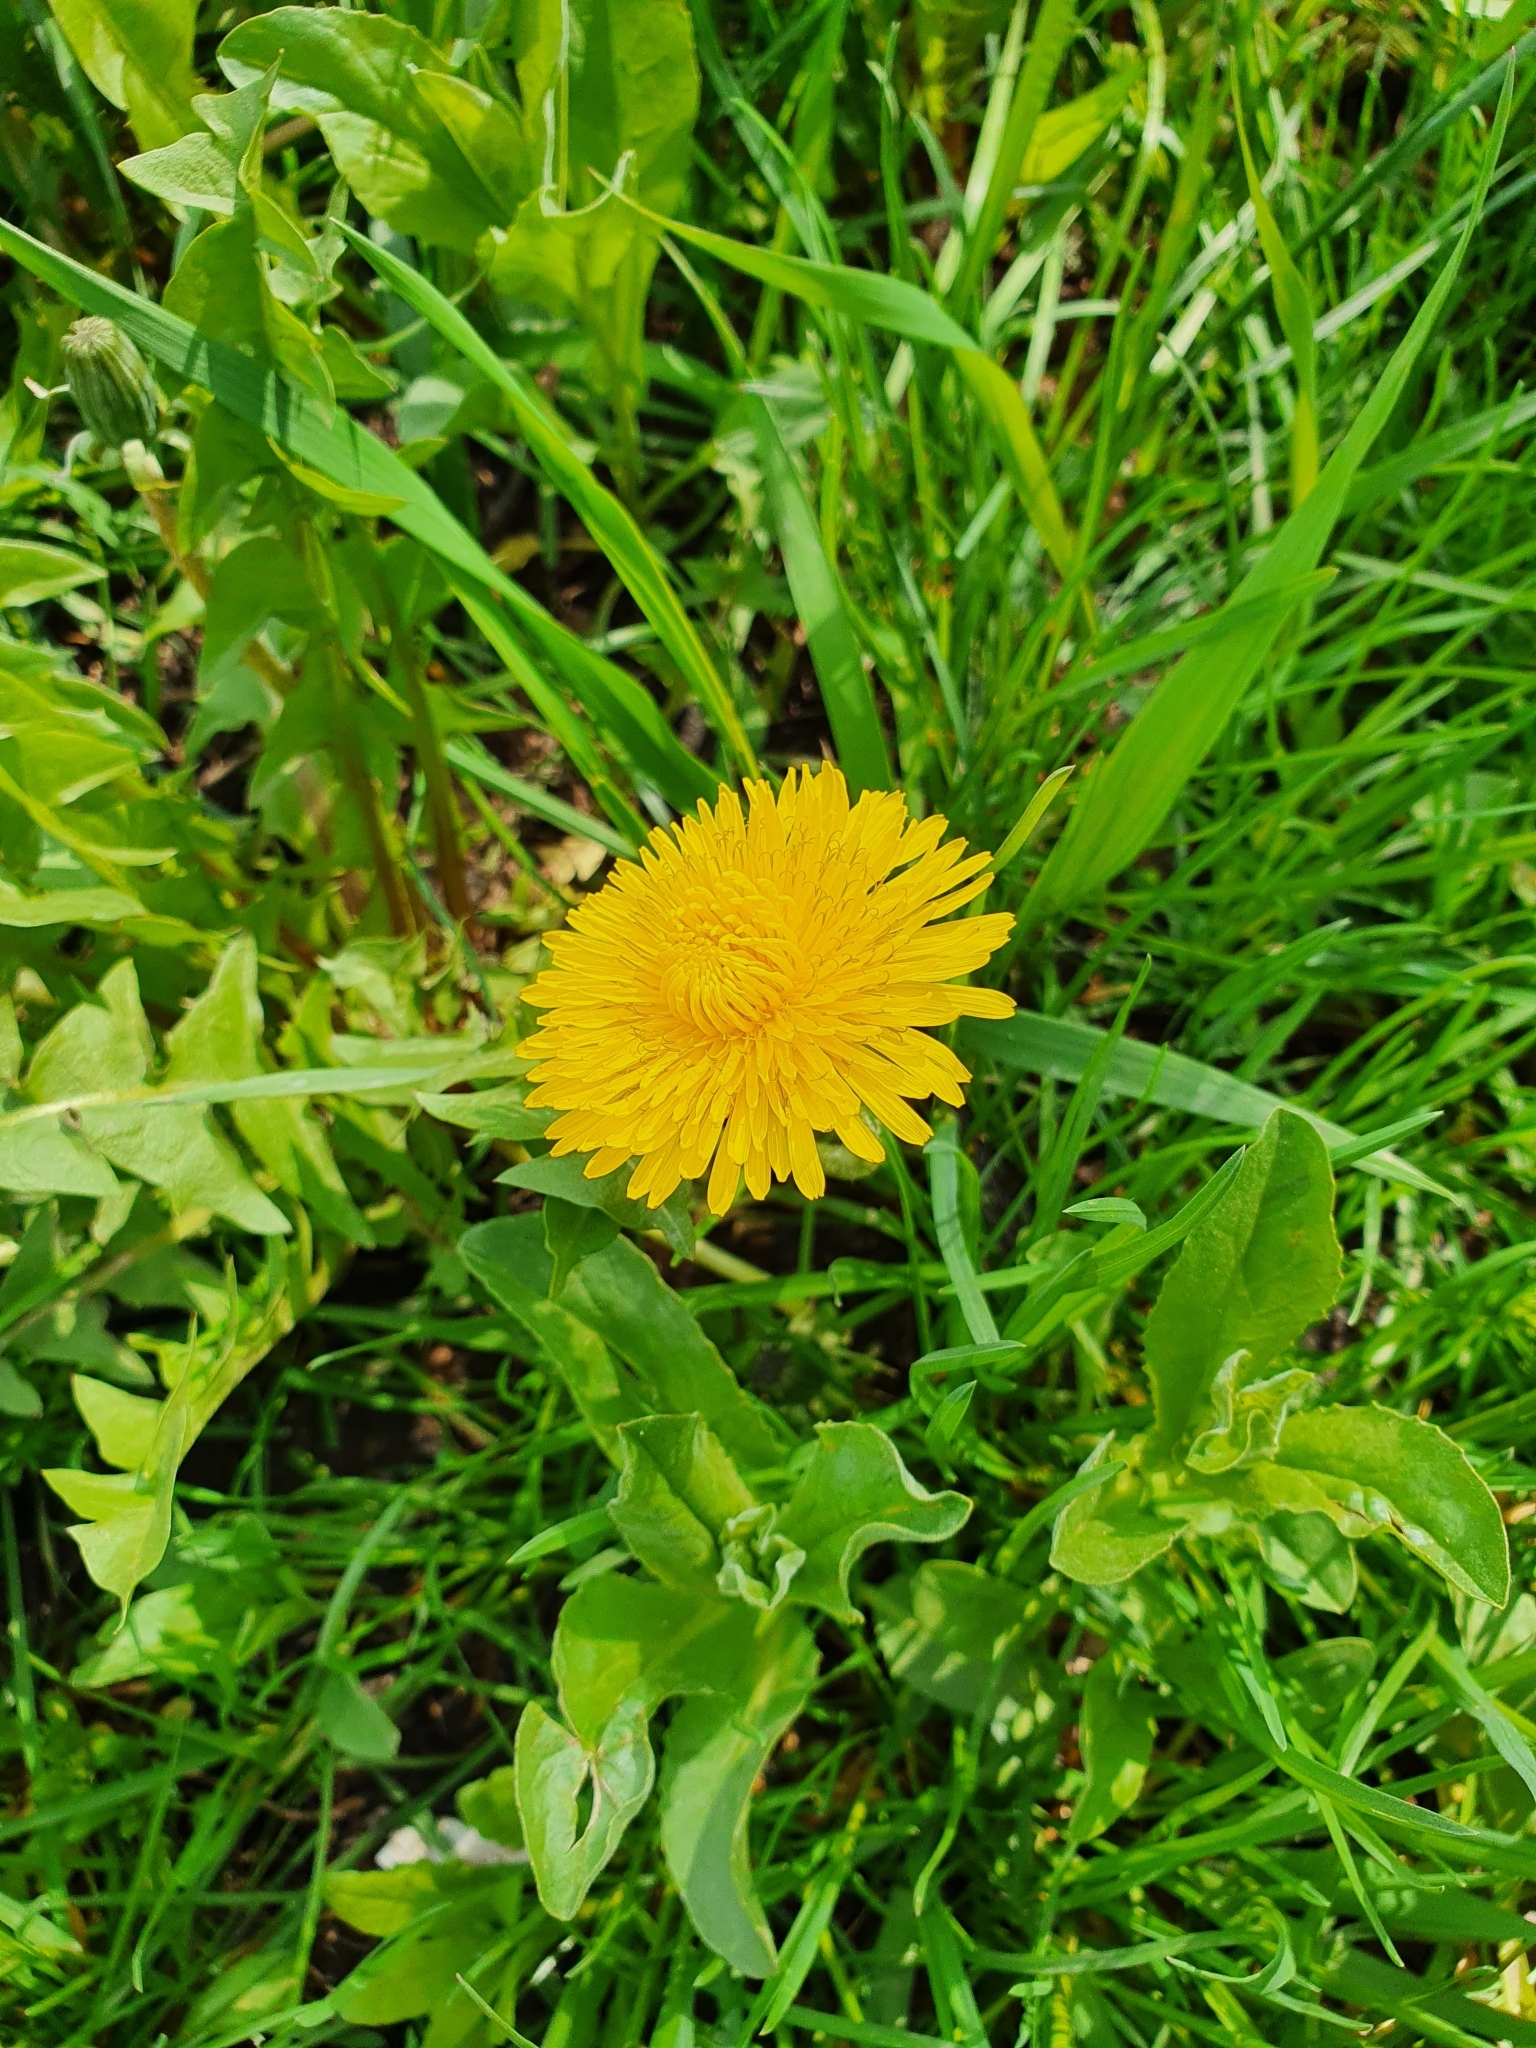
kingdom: Plantae
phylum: Tracheophyta
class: Magnoliopsida
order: Asterales
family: Asteraceae
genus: Taraxacum
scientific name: Taraxacum officinale
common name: Common dandelion
